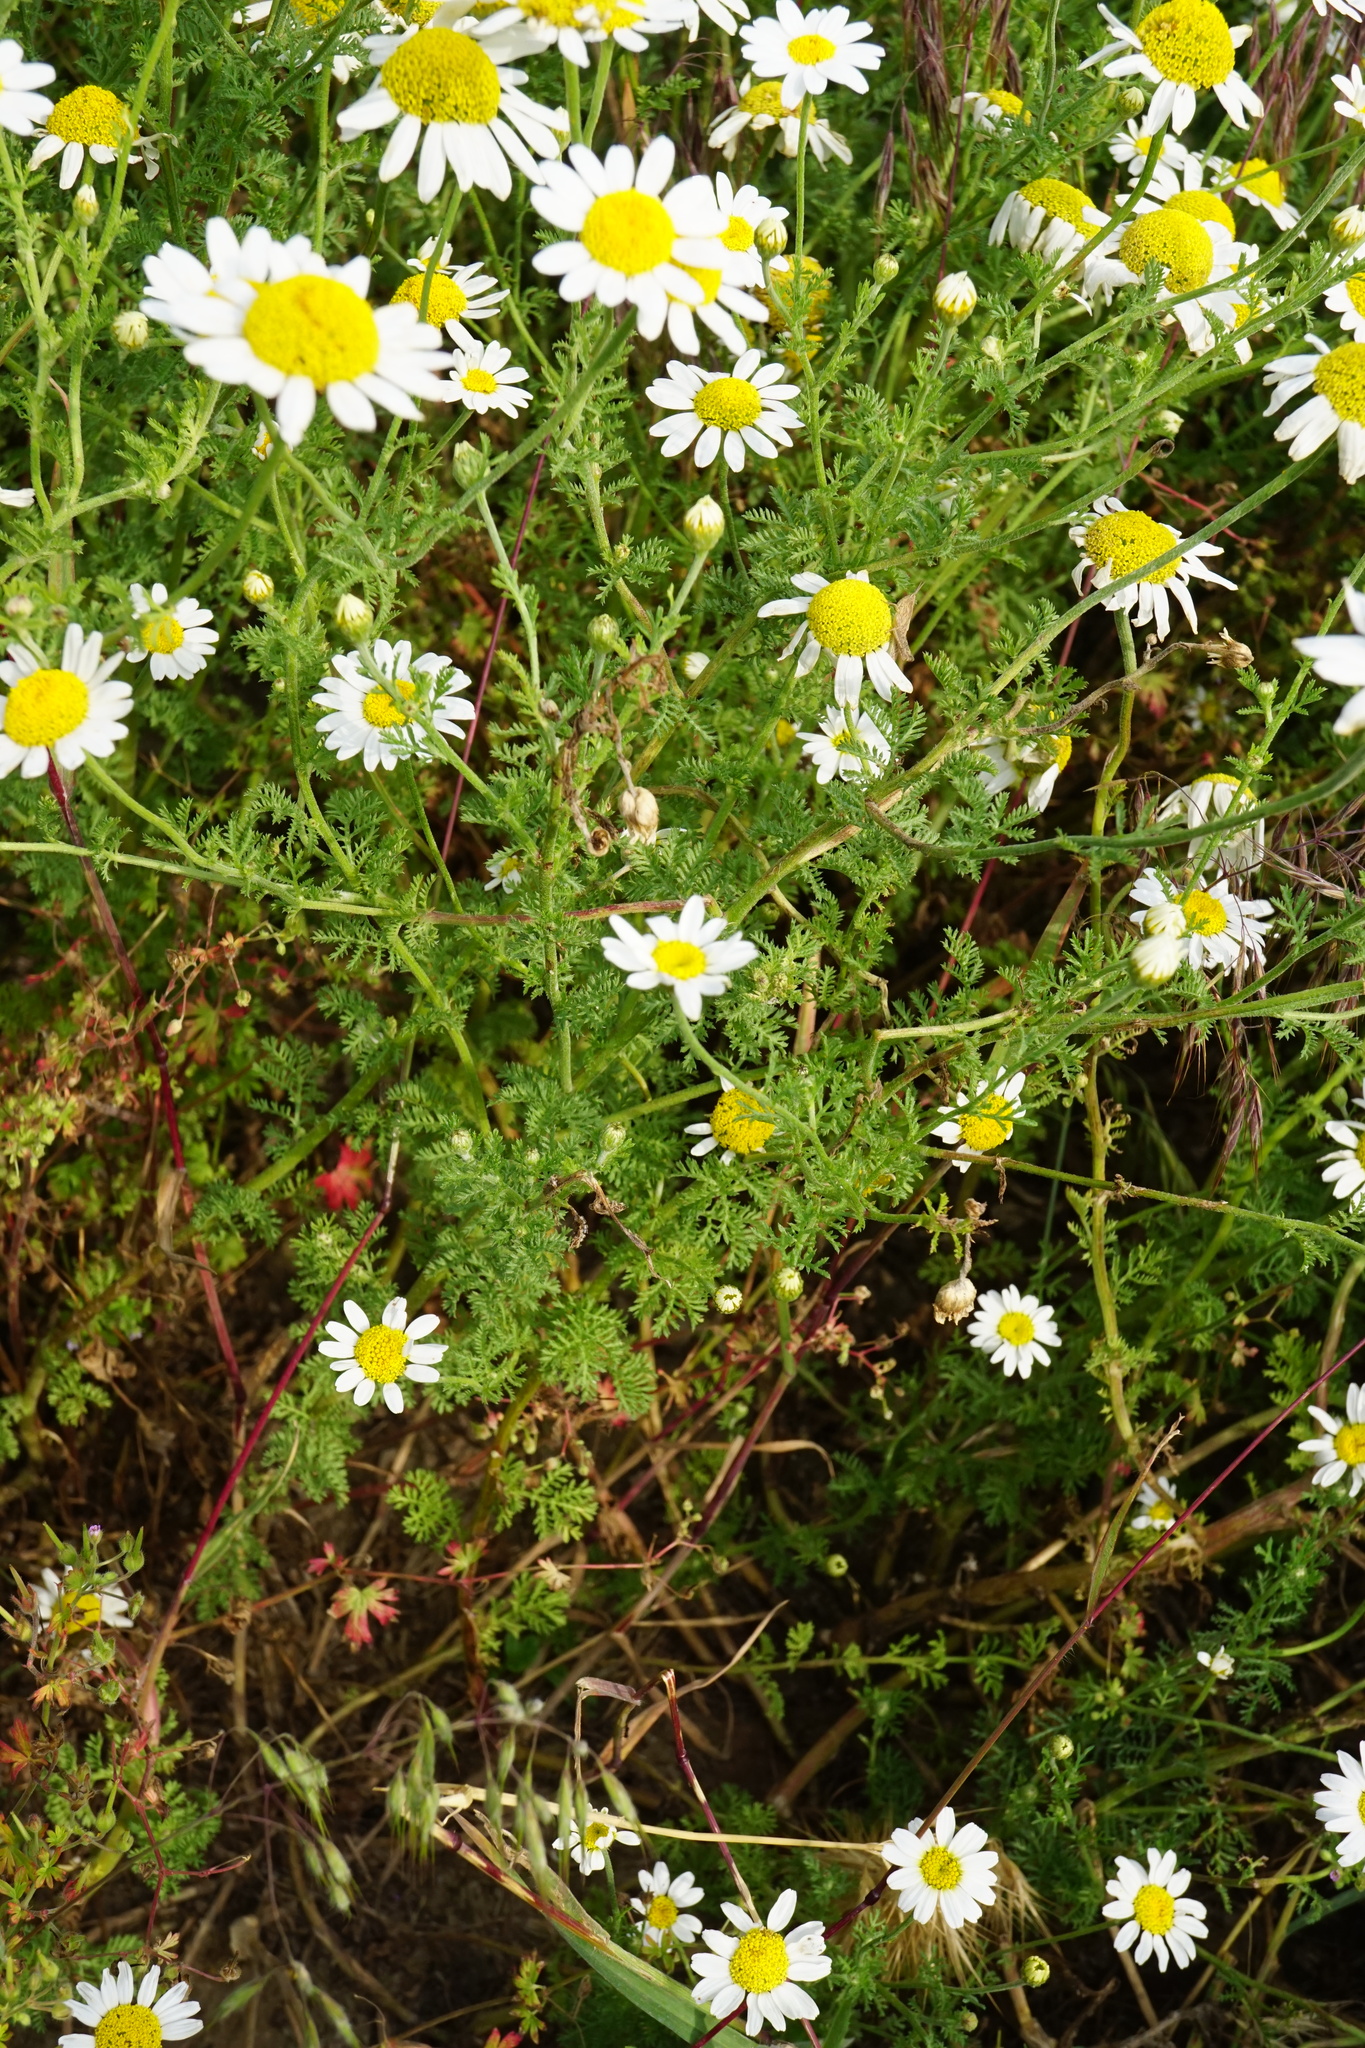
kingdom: Plantae
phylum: Tracheophyta
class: Magnoliopsida
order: Asterales
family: Asteraceae
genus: Cota
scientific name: Cota austriaca
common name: Austrian chamomile
